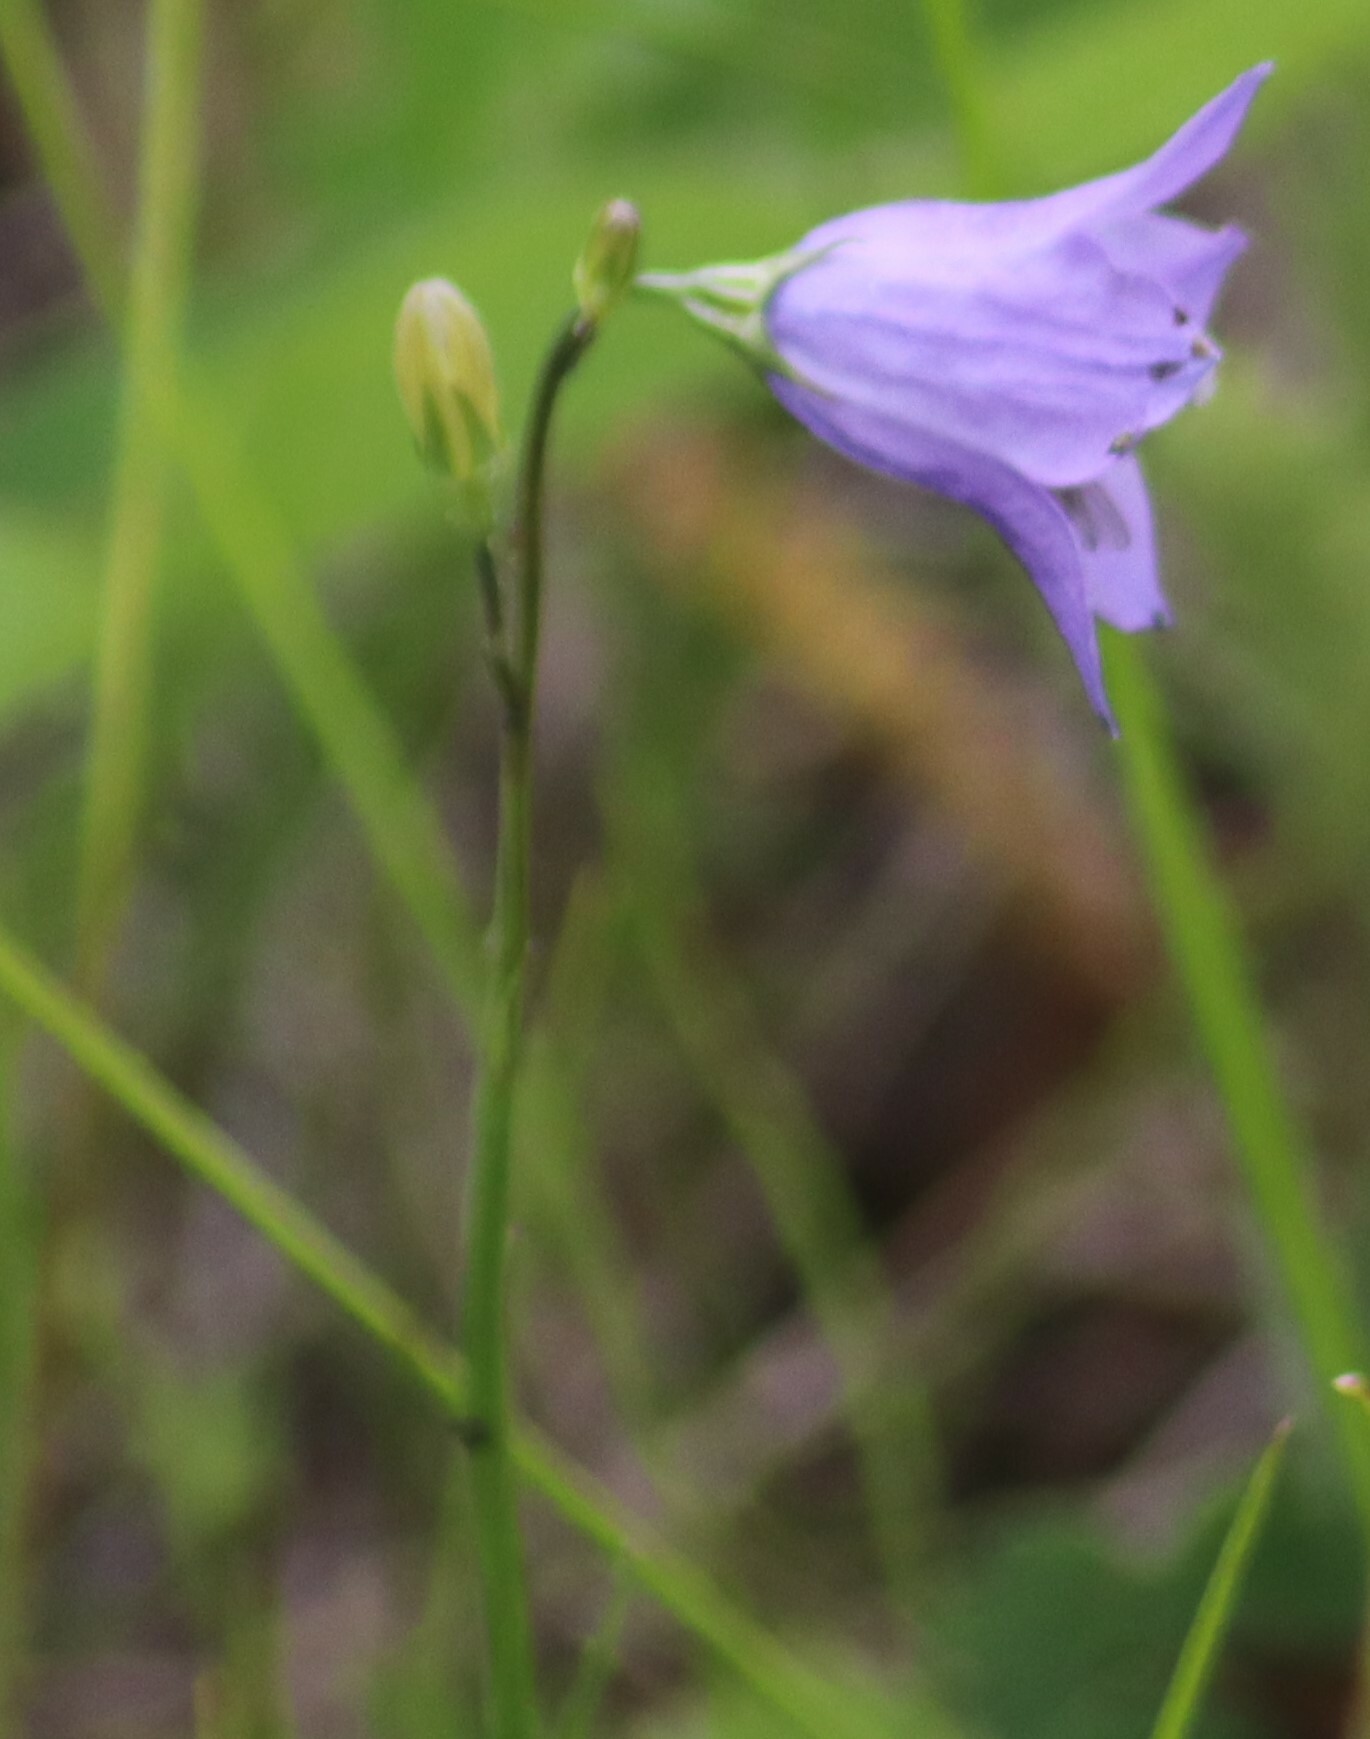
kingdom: Plantae
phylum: Tracheophyta
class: Magnoliopsida
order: Asterales
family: Campanulaceae
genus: Campanula
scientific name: Campanula petiolata
